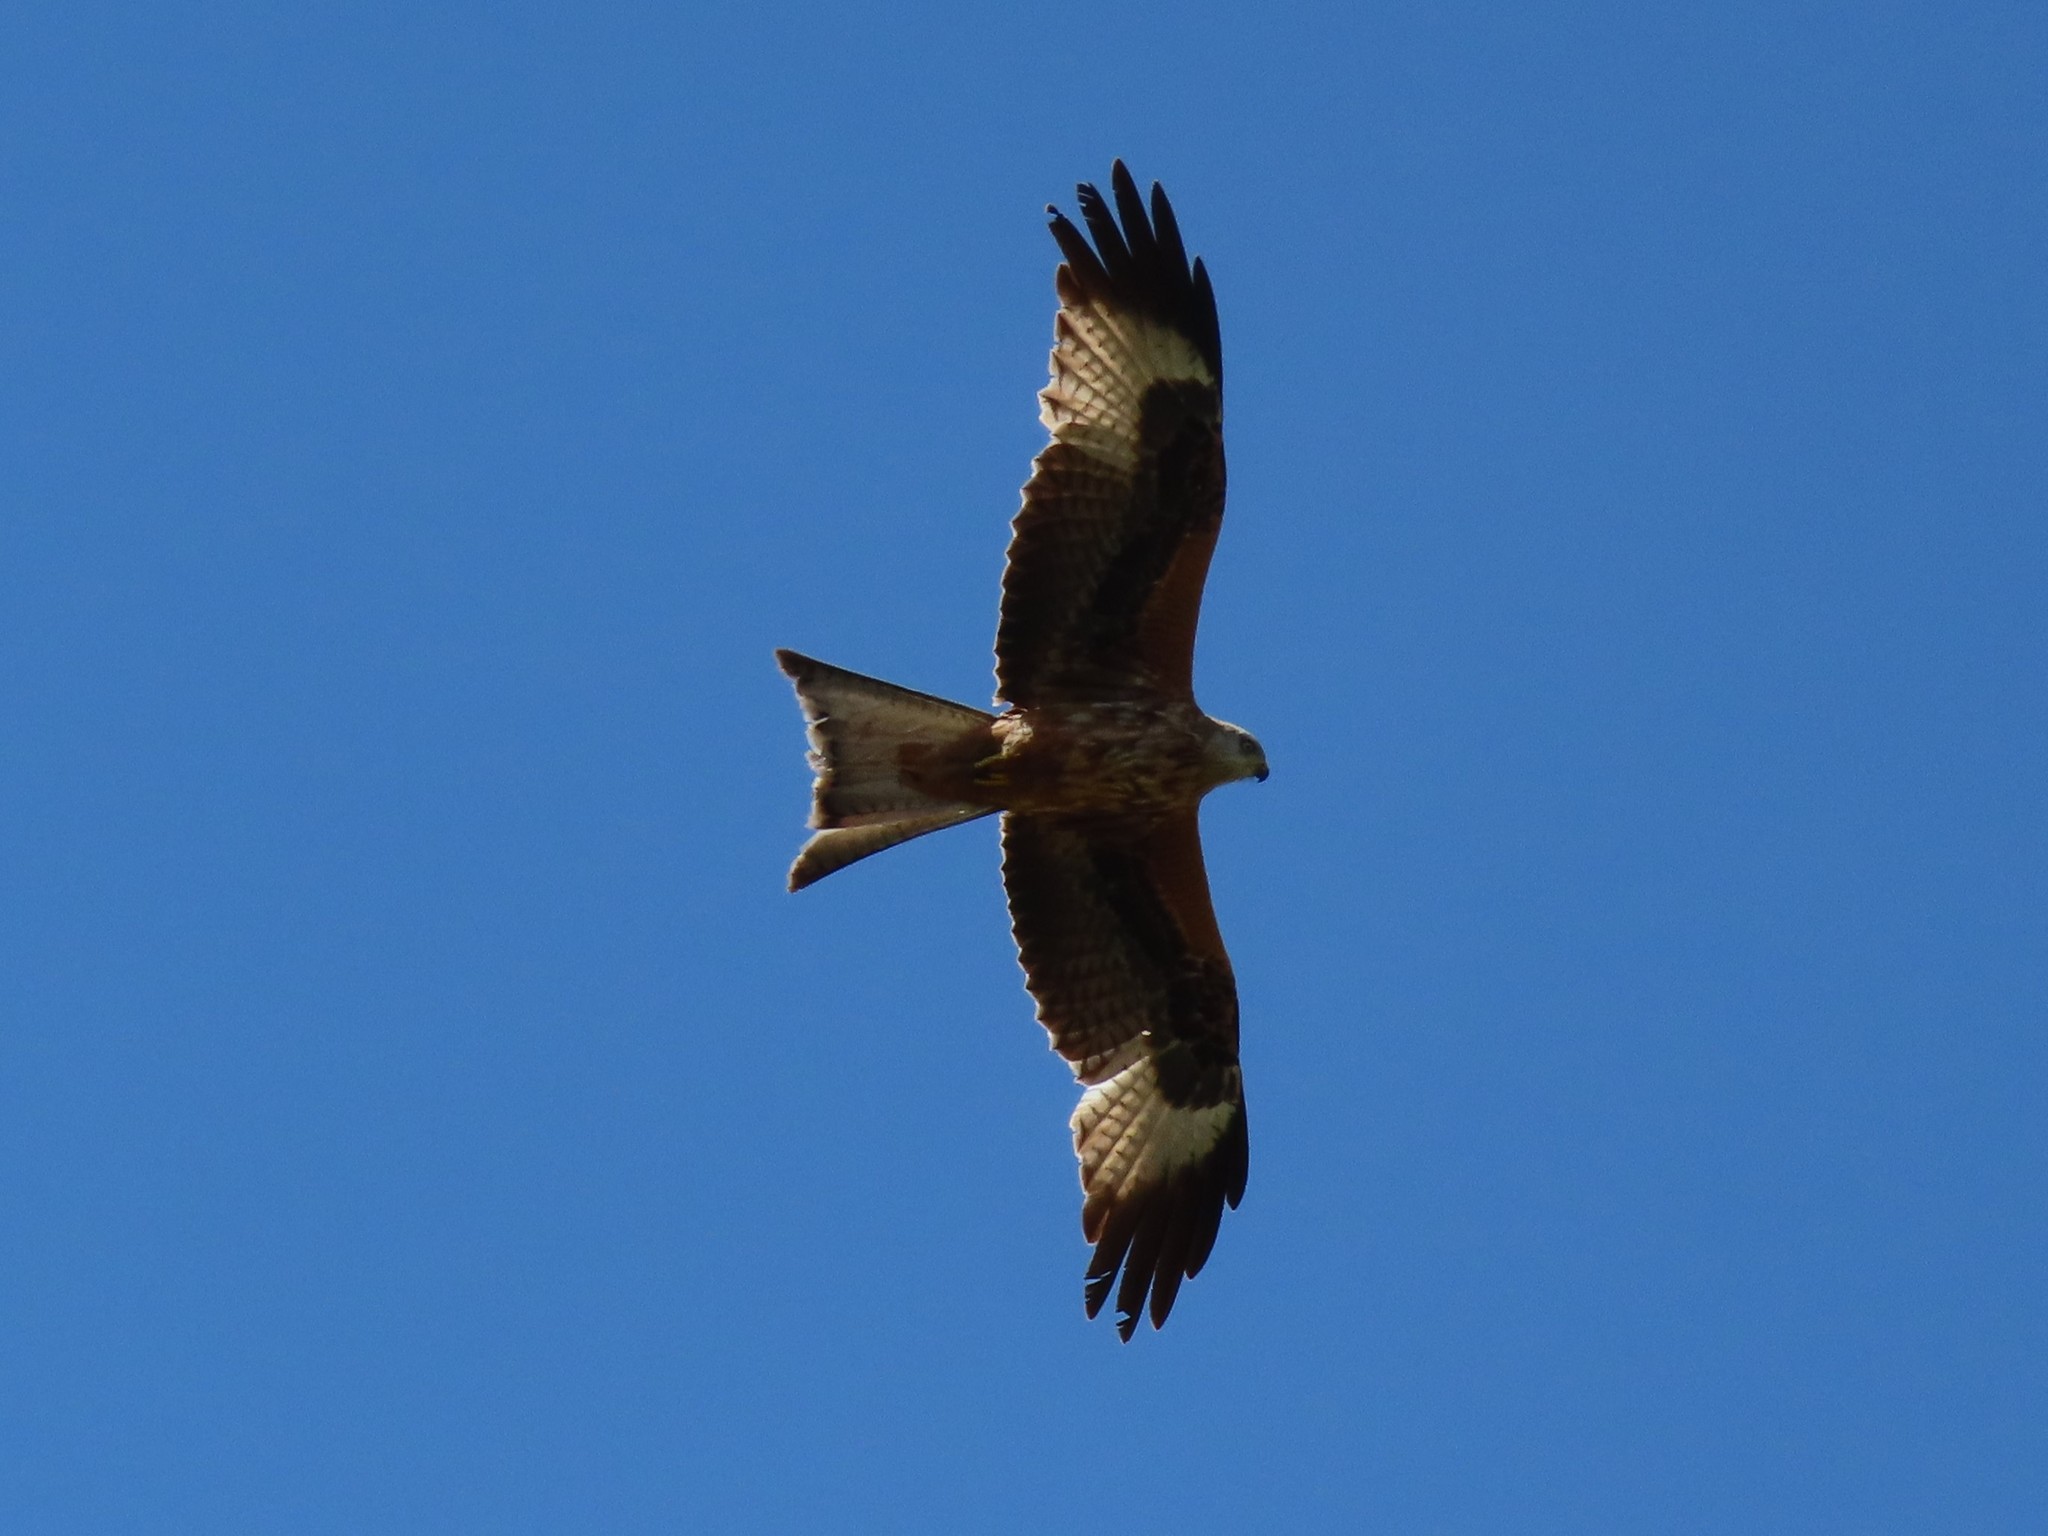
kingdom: Animalia
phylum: Chordata
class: Aves
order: Accipitriformes
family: Accipitridae
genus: Milvus
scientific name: Milvus milvus
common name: Red kite
